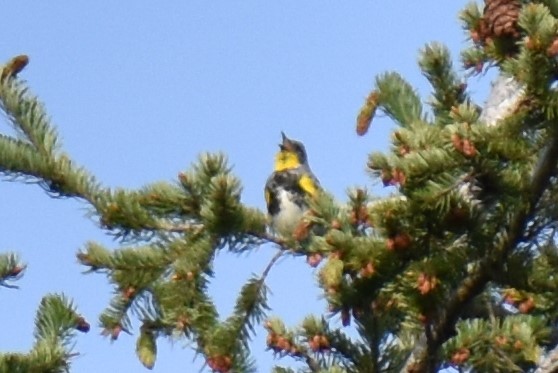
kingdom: Animalia
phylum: Chordata
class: Aves
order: Passeriformes
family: Parulidae
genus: Setophaga
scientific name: Setophaga coronata
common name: Myrtle warbler
